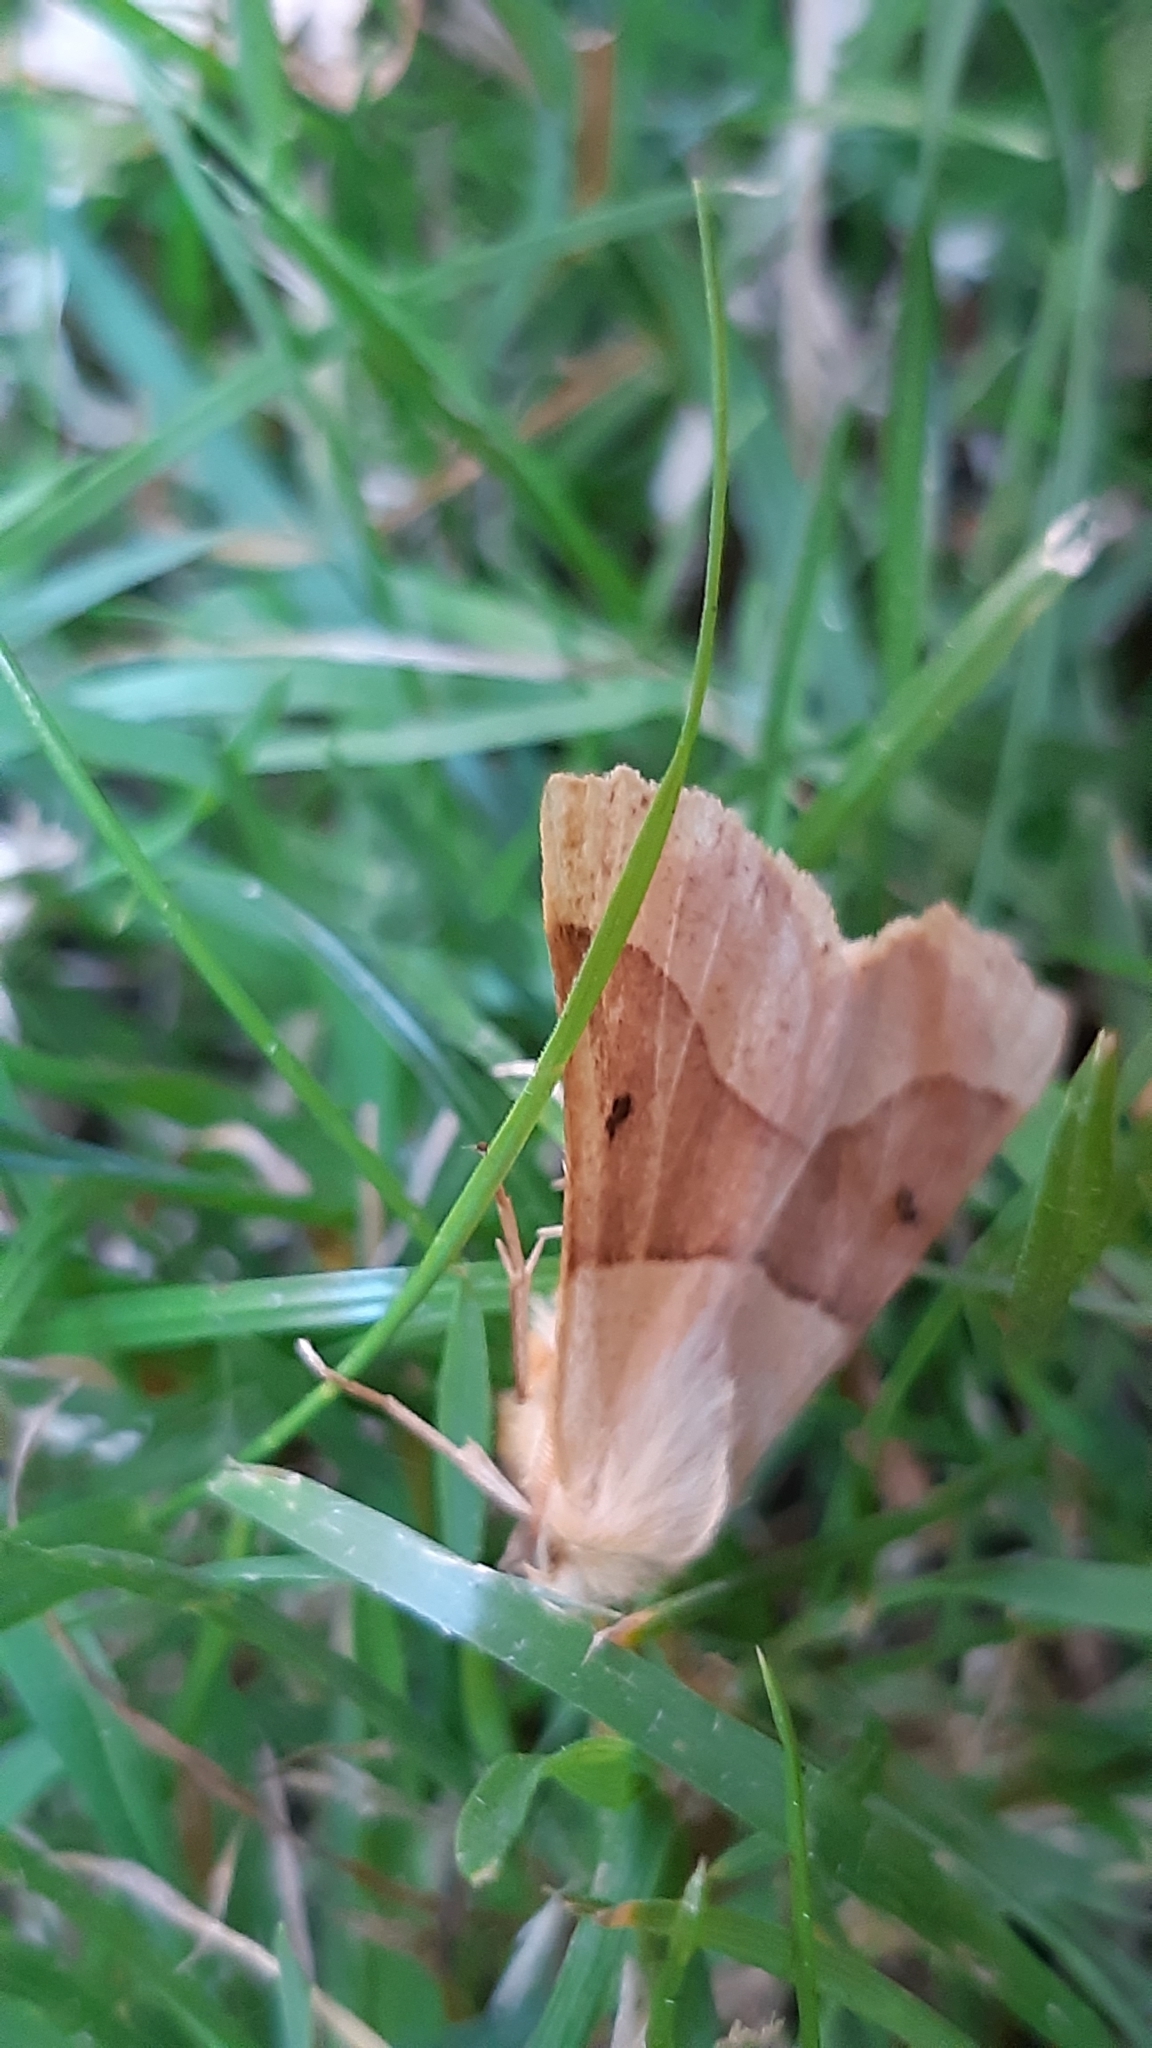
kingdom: Animalia
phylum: Arthropoda
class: Insecta
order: Lepidoptera
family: Geometridae
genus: Crocallis
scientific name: Crocallis elinguaria
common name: Scalloped oak
